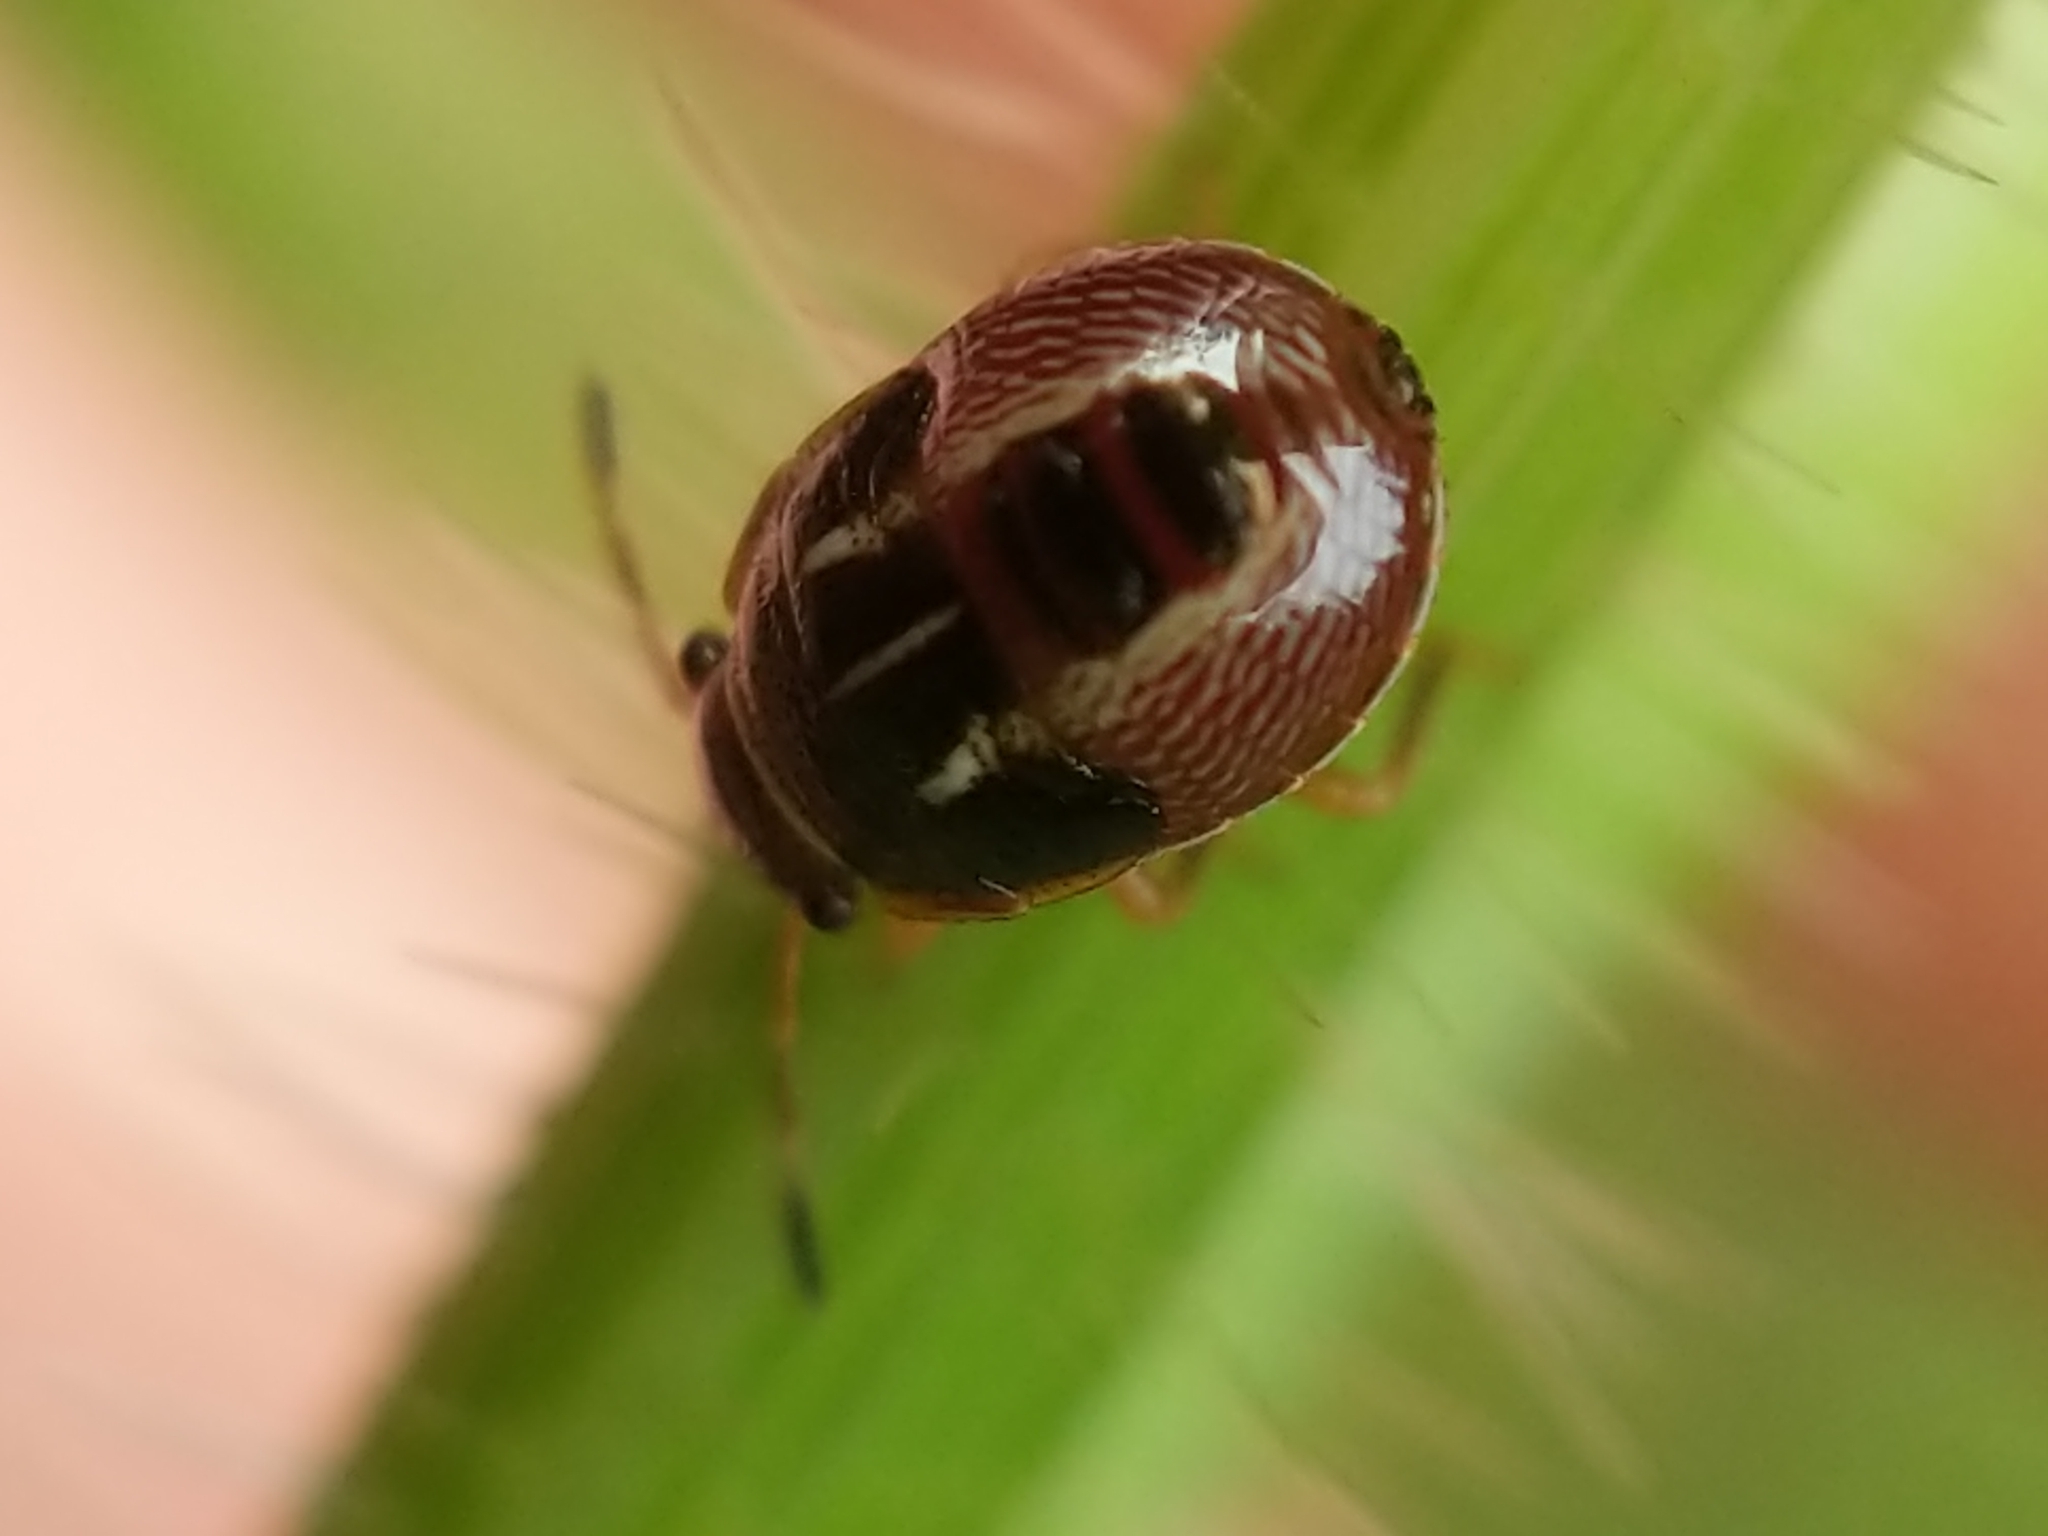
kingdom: Animalia
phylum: Arthropoda
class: Insecta
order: Hemiptera
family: Pentatomidae
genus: Mormidea
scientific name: Mormidea lugens
